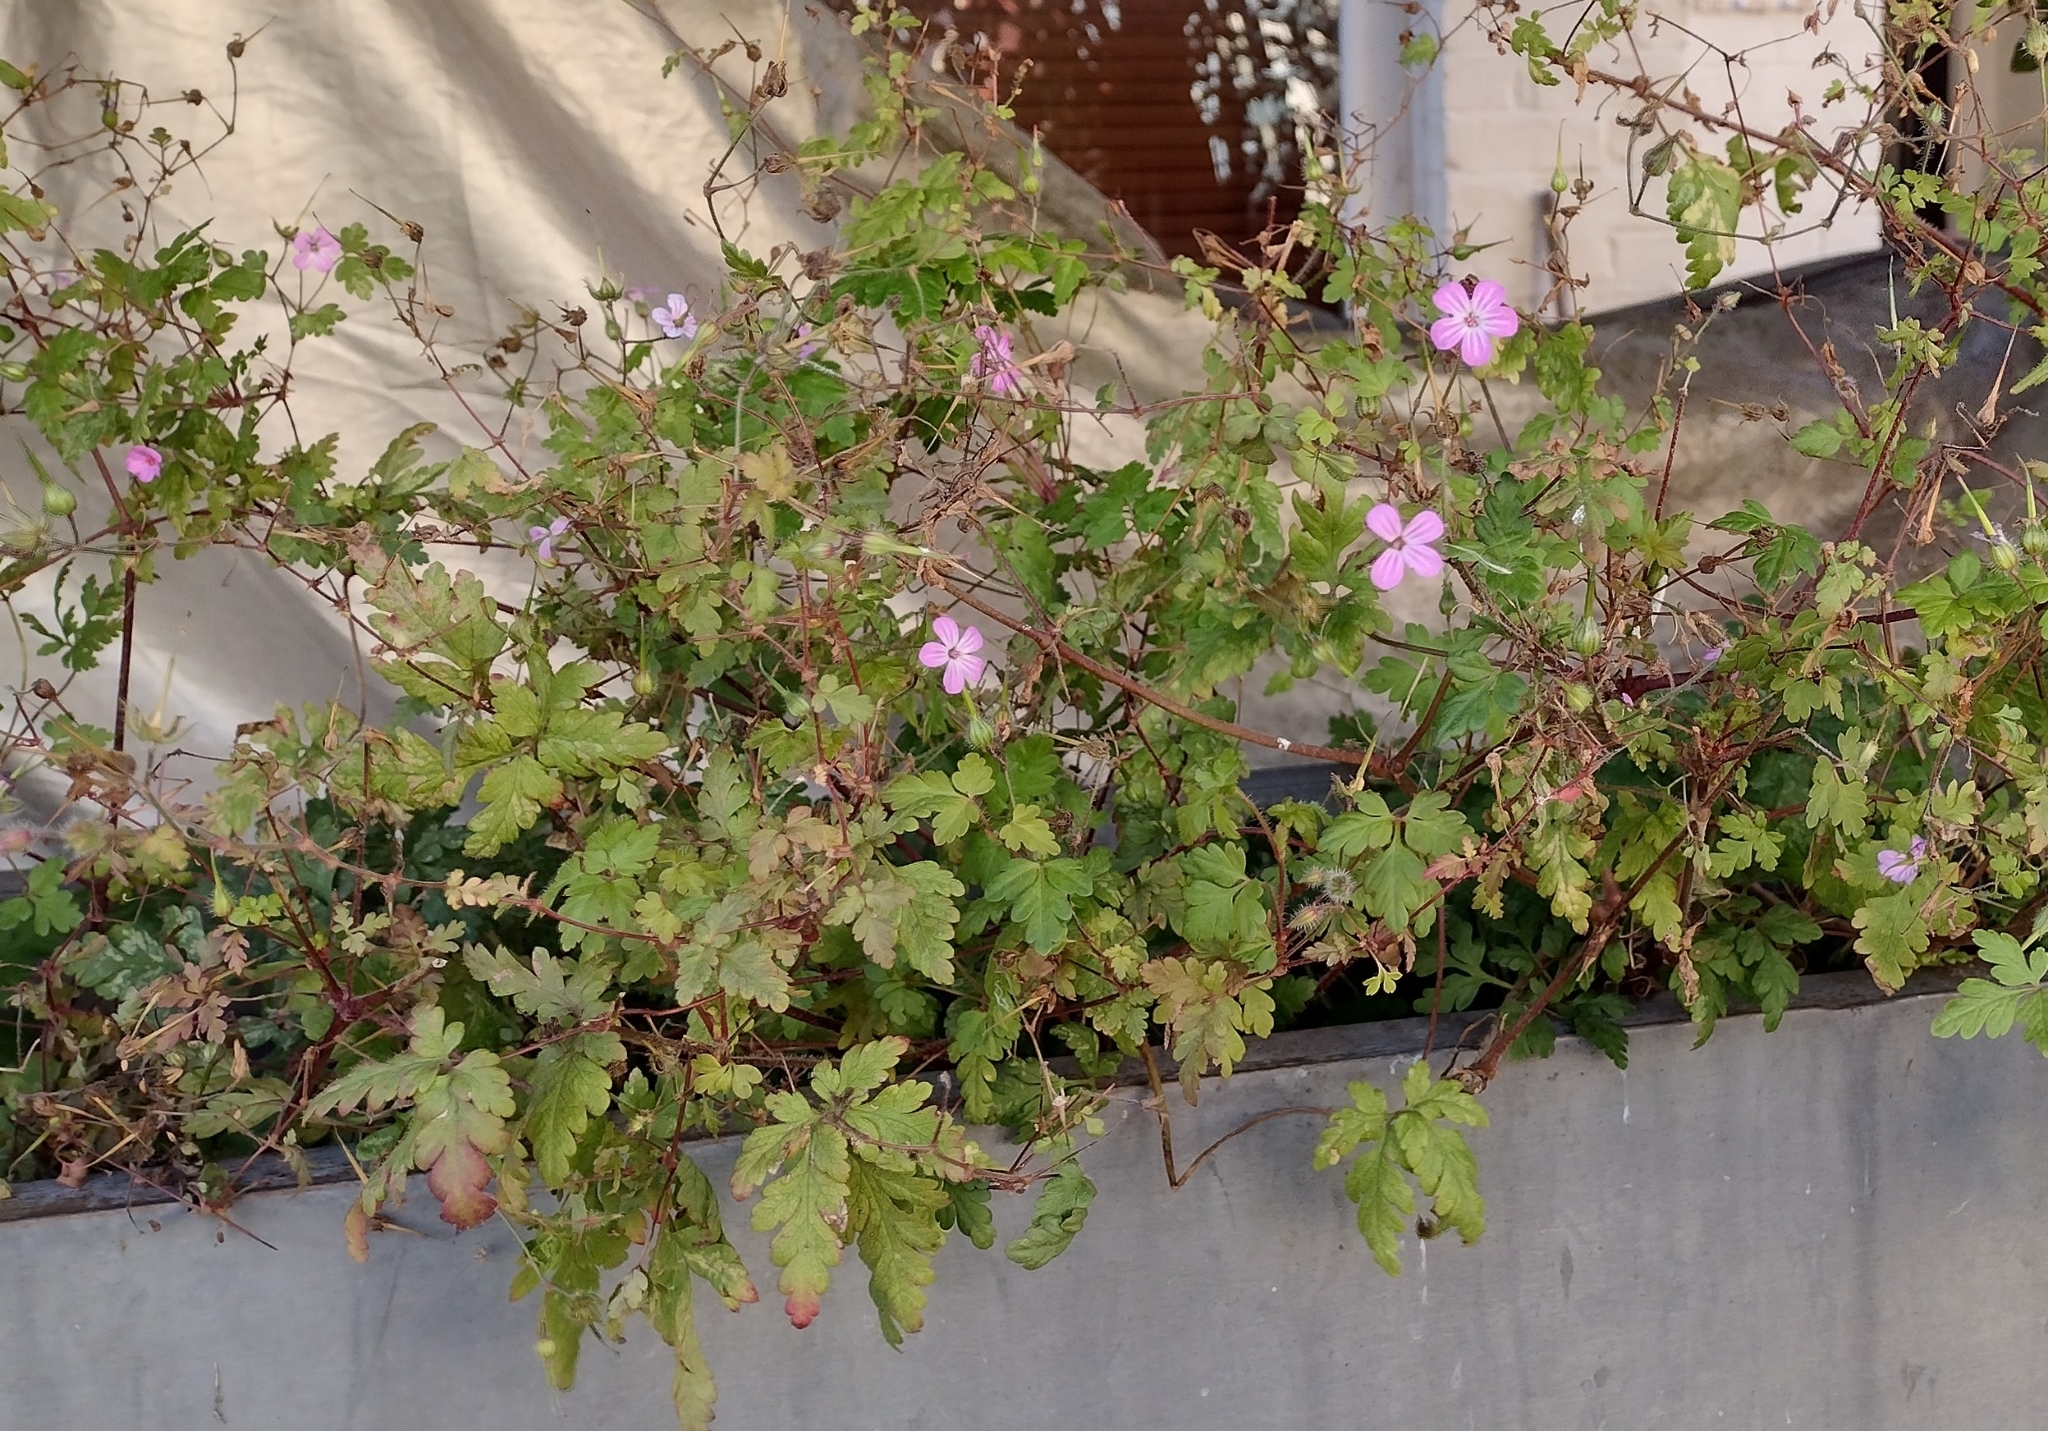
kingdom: Plantae
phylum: Tracheophyta
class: Magnoliopsida
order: Geraniales
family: Geraniaceae
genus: Geranium
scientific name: Geranium robertianum
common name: Herb-robert
